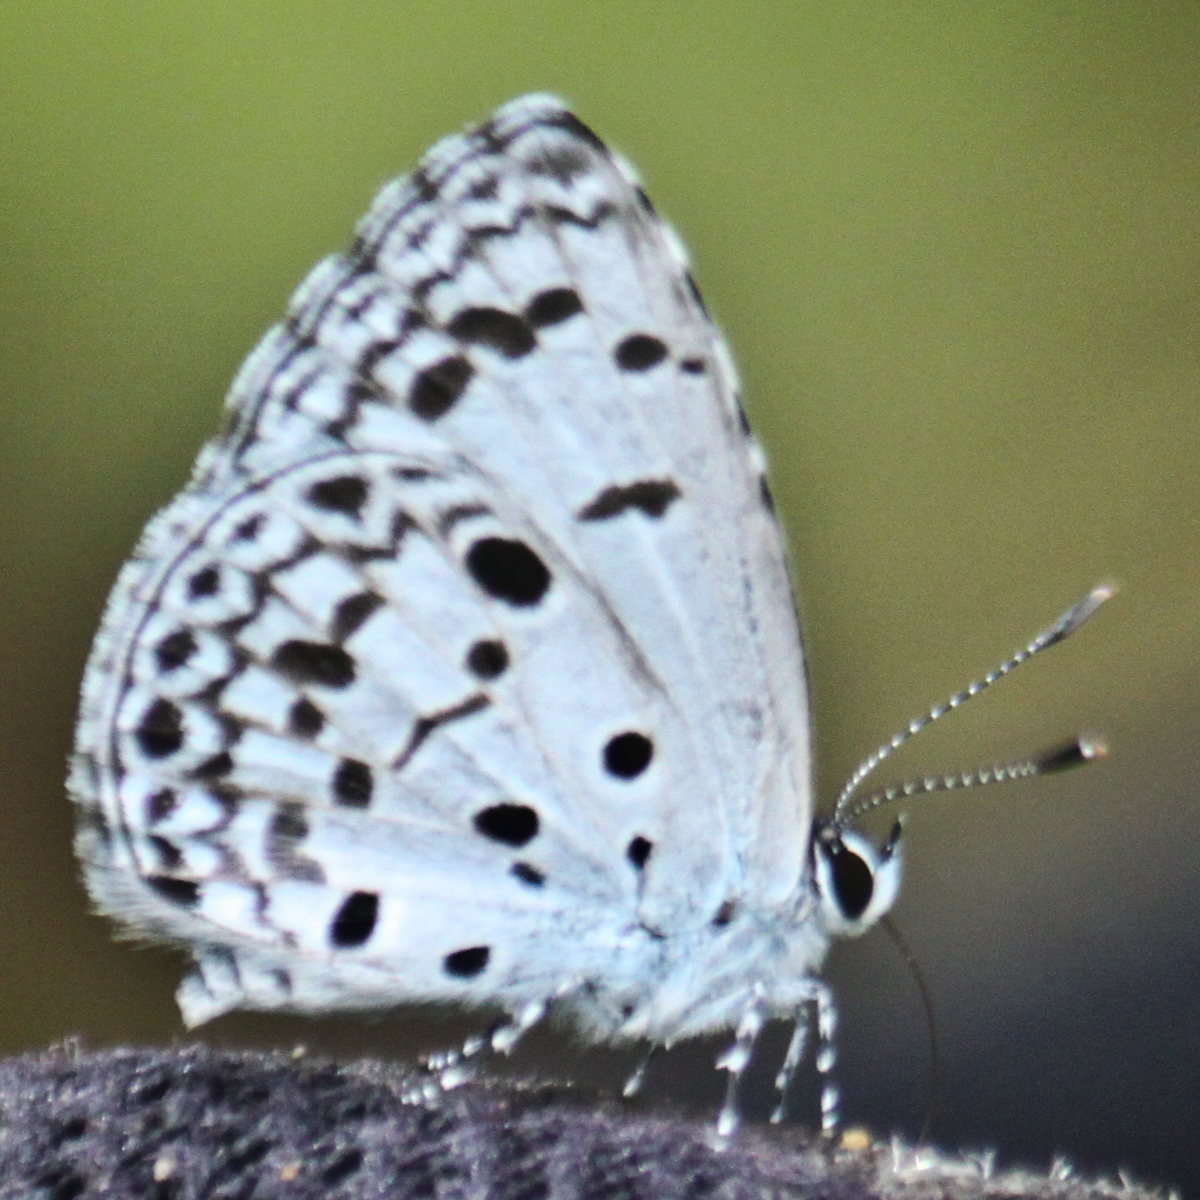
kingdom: Animalia
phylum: Arthropoda
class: Insecta
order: Lepidoptera
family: Lycaenidae
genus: Acytolepis
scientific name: Acytolepis puspa
